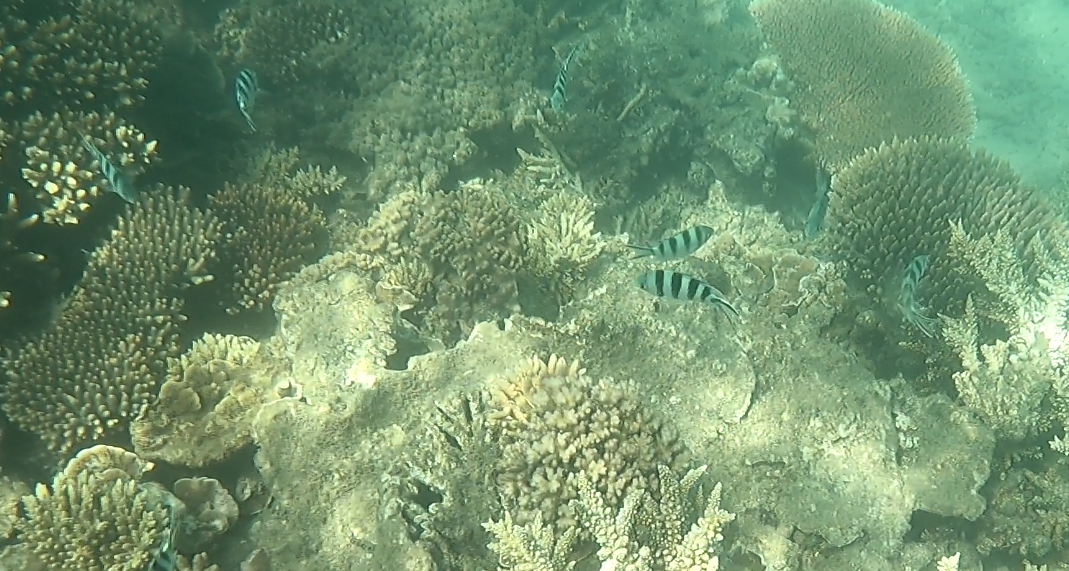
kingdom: Animalia
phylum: Chordata
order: Perciformes
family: Pomacentridae
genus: Abudefduf
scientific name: Abudefduf sexfasciatus
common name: Scissortail sergeant
